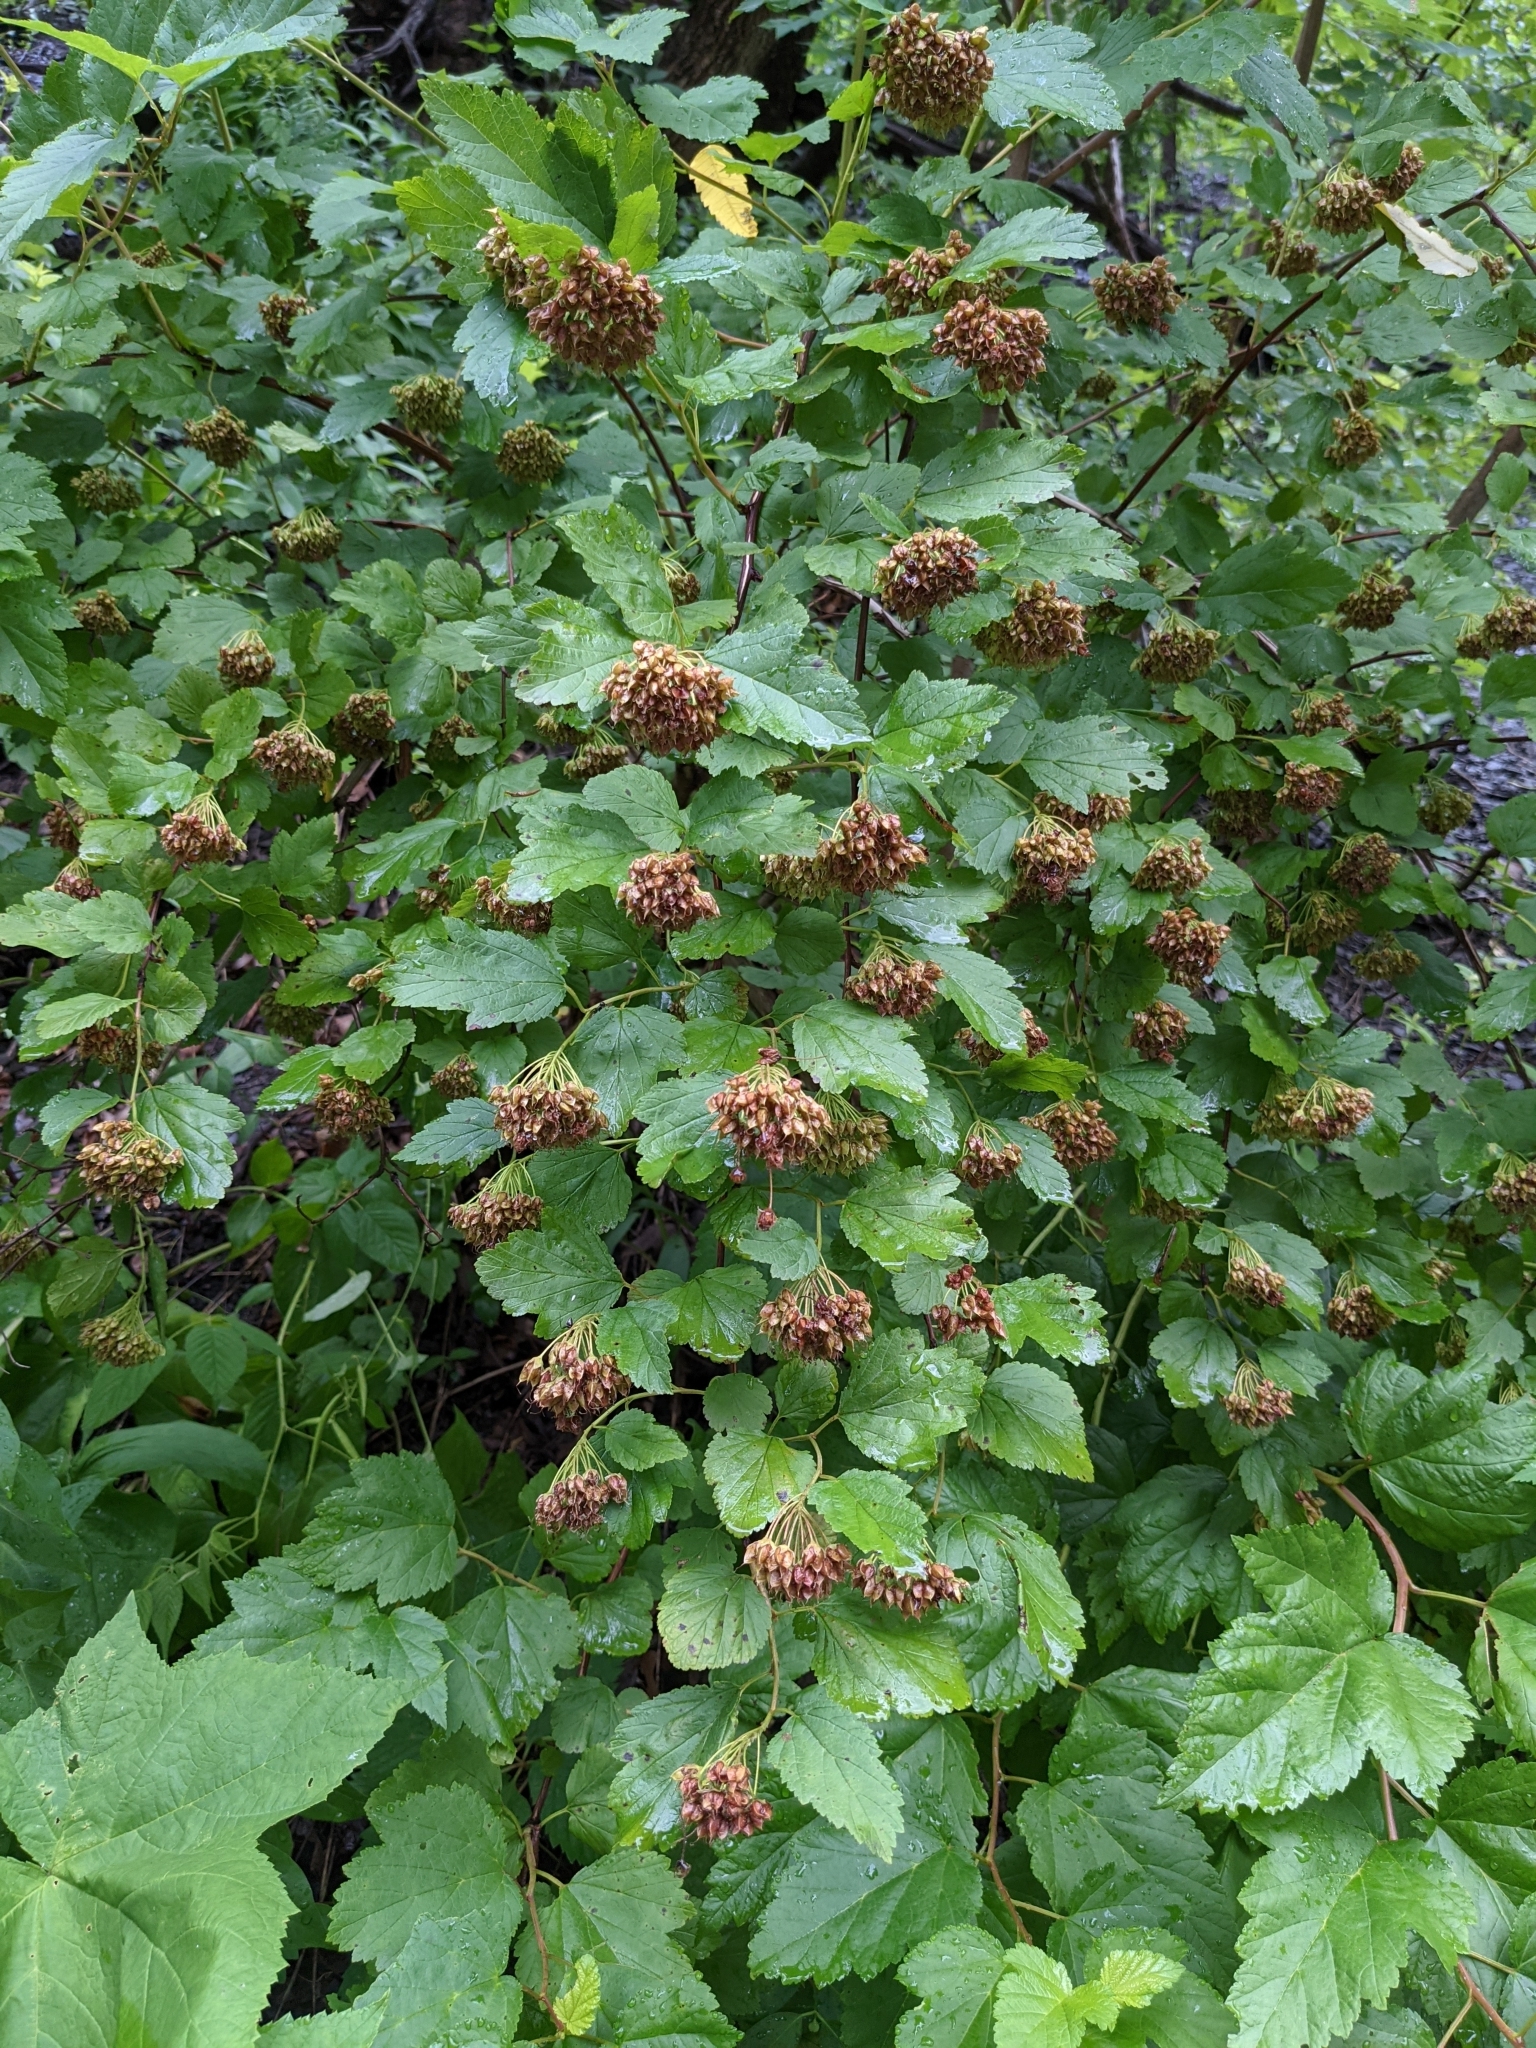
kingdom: Plantae
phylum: Tracheophyta
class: Magnoliopsida
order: Rosales
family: Rosaceae
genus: Physocarpus
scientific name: Physocarpus opulifolius
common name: Ninebark
